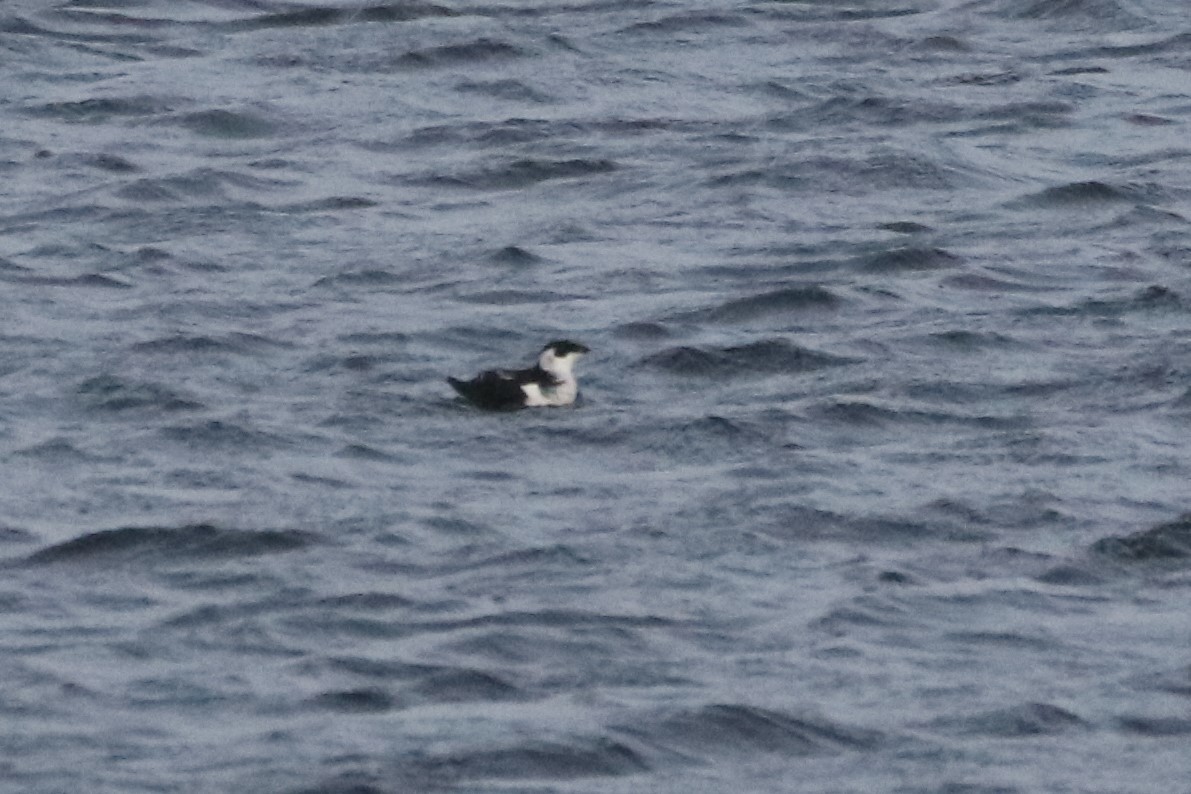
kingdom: Animalia
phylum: Chordata
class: Aves
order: Charadriiformes
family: Alcidae
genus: Alle
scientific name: Alle alle
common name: Little auk
